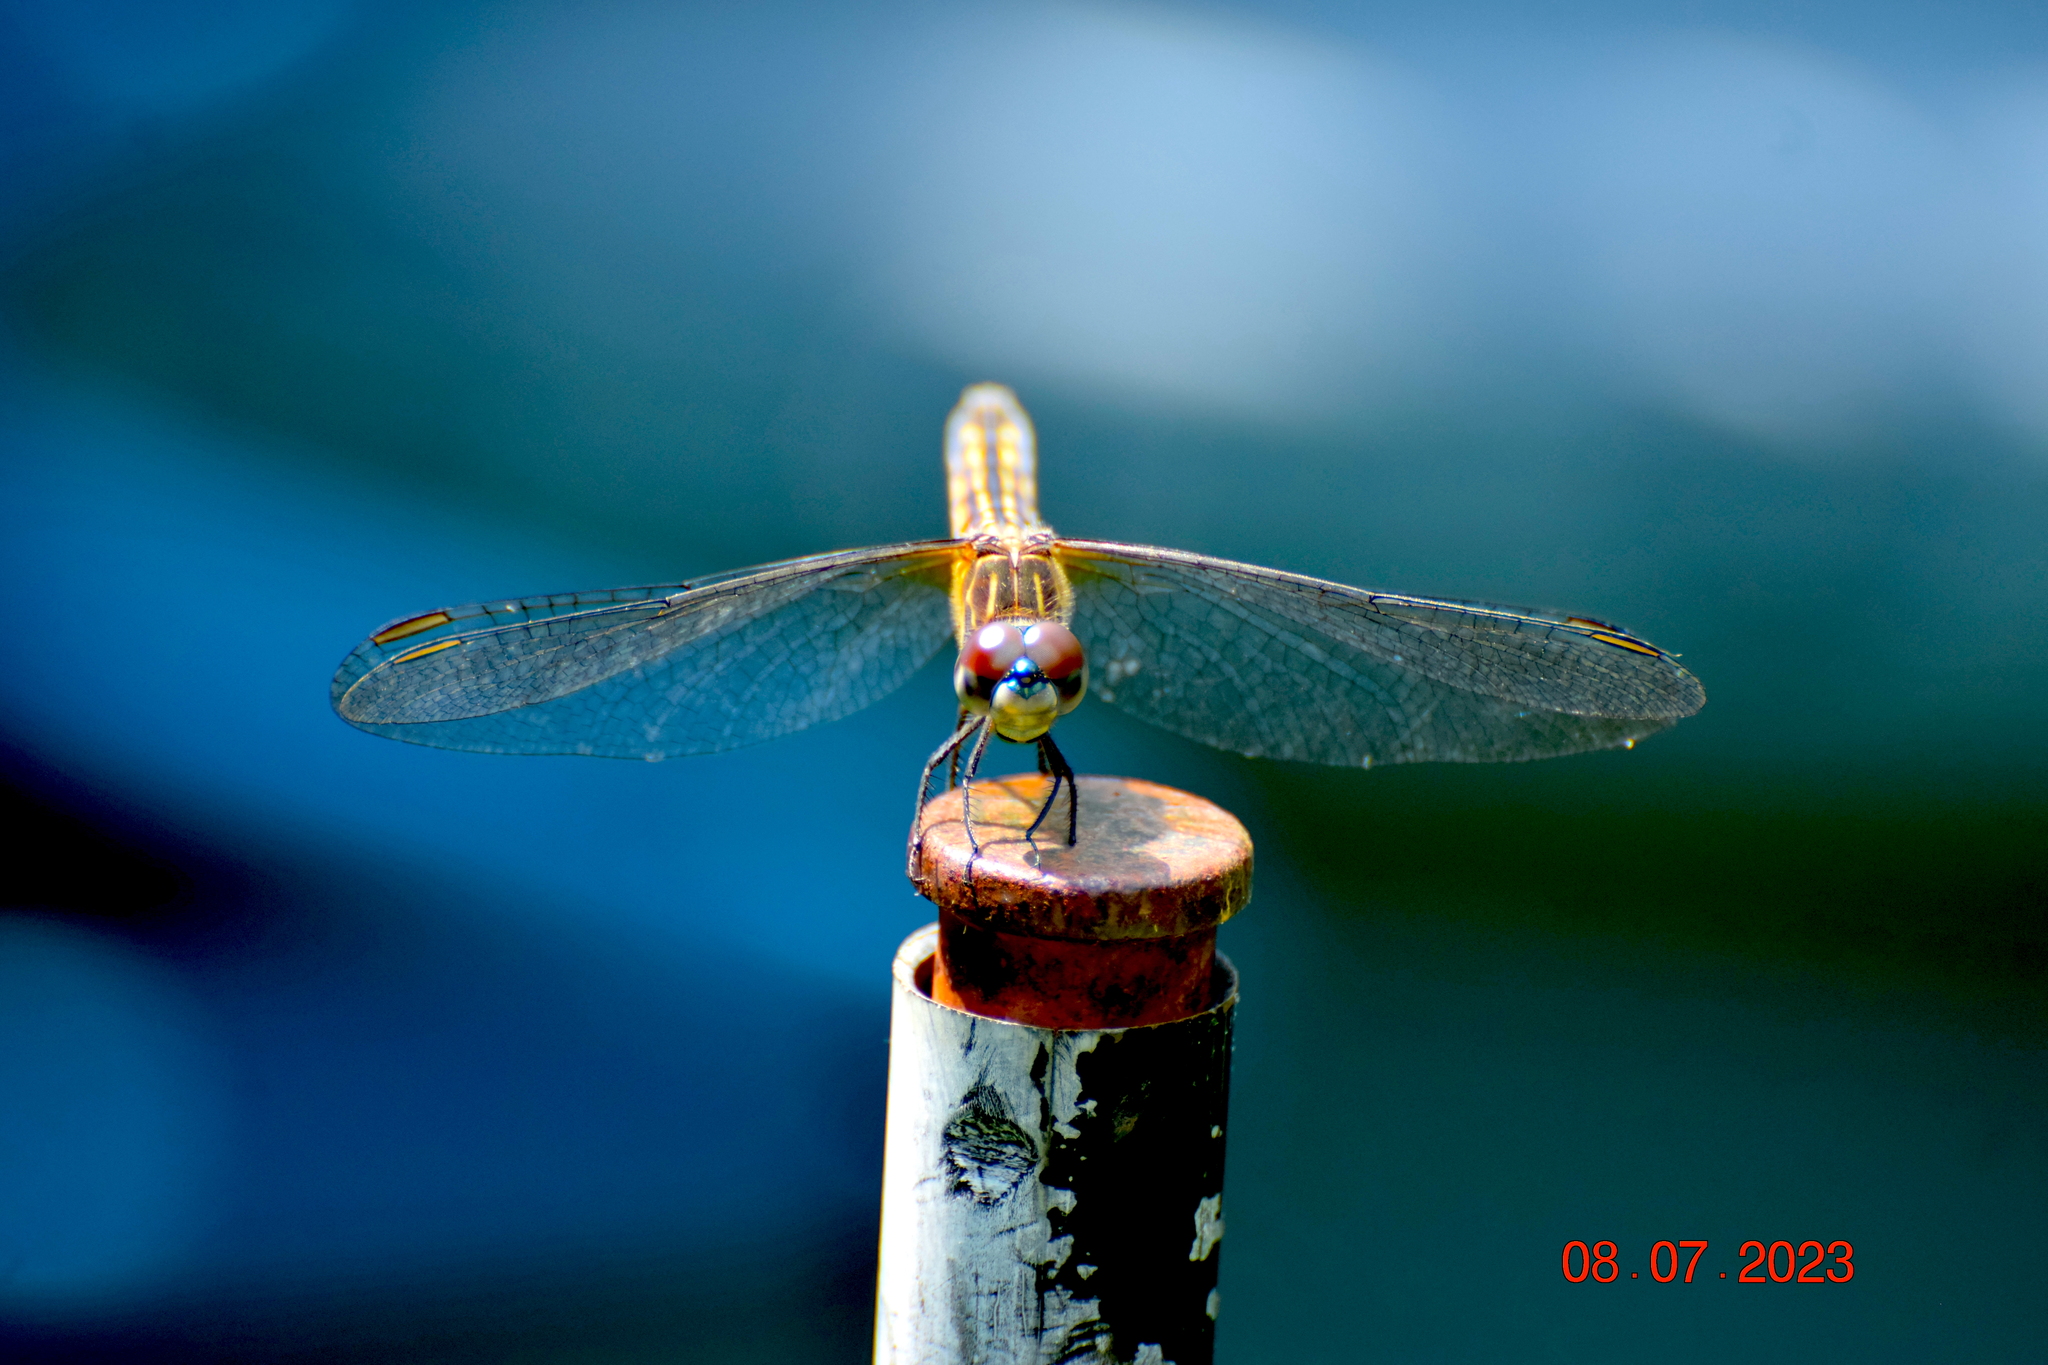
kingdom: Animalia
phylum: Arthropoda
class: Insecta
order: Odonata
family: Libellulidae
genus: Pachydiplax
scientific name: Pachydiplax longipennis
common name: Blue dasher
